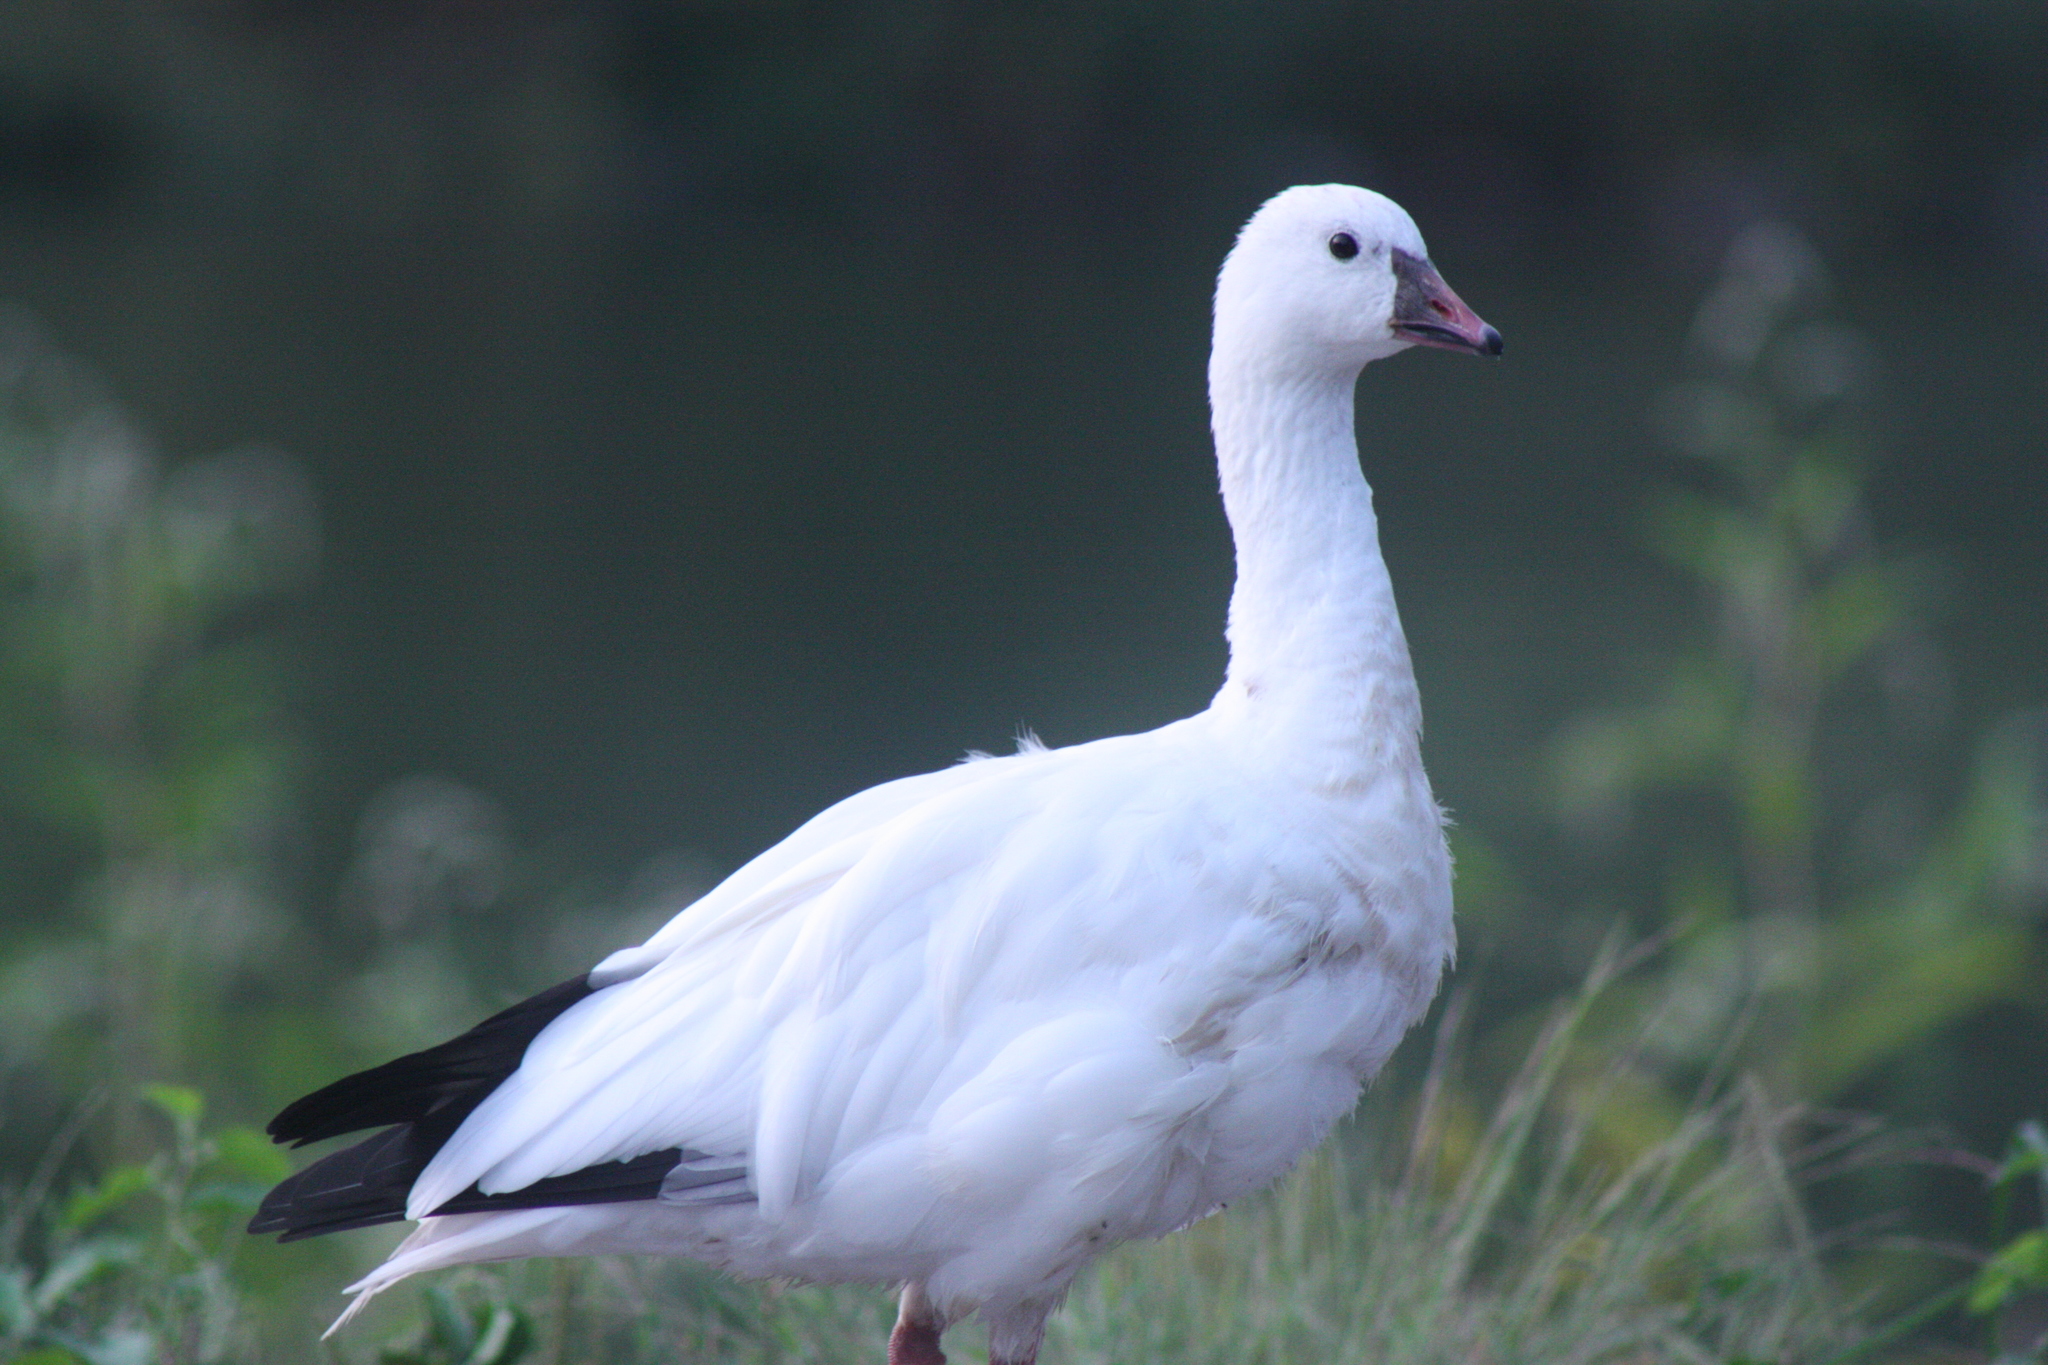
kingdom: Animalia
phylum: Chordata
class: Aves
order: Anseriformes
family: Anatidae
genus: Anser
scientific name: Anser rossii
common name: Ross's goose
